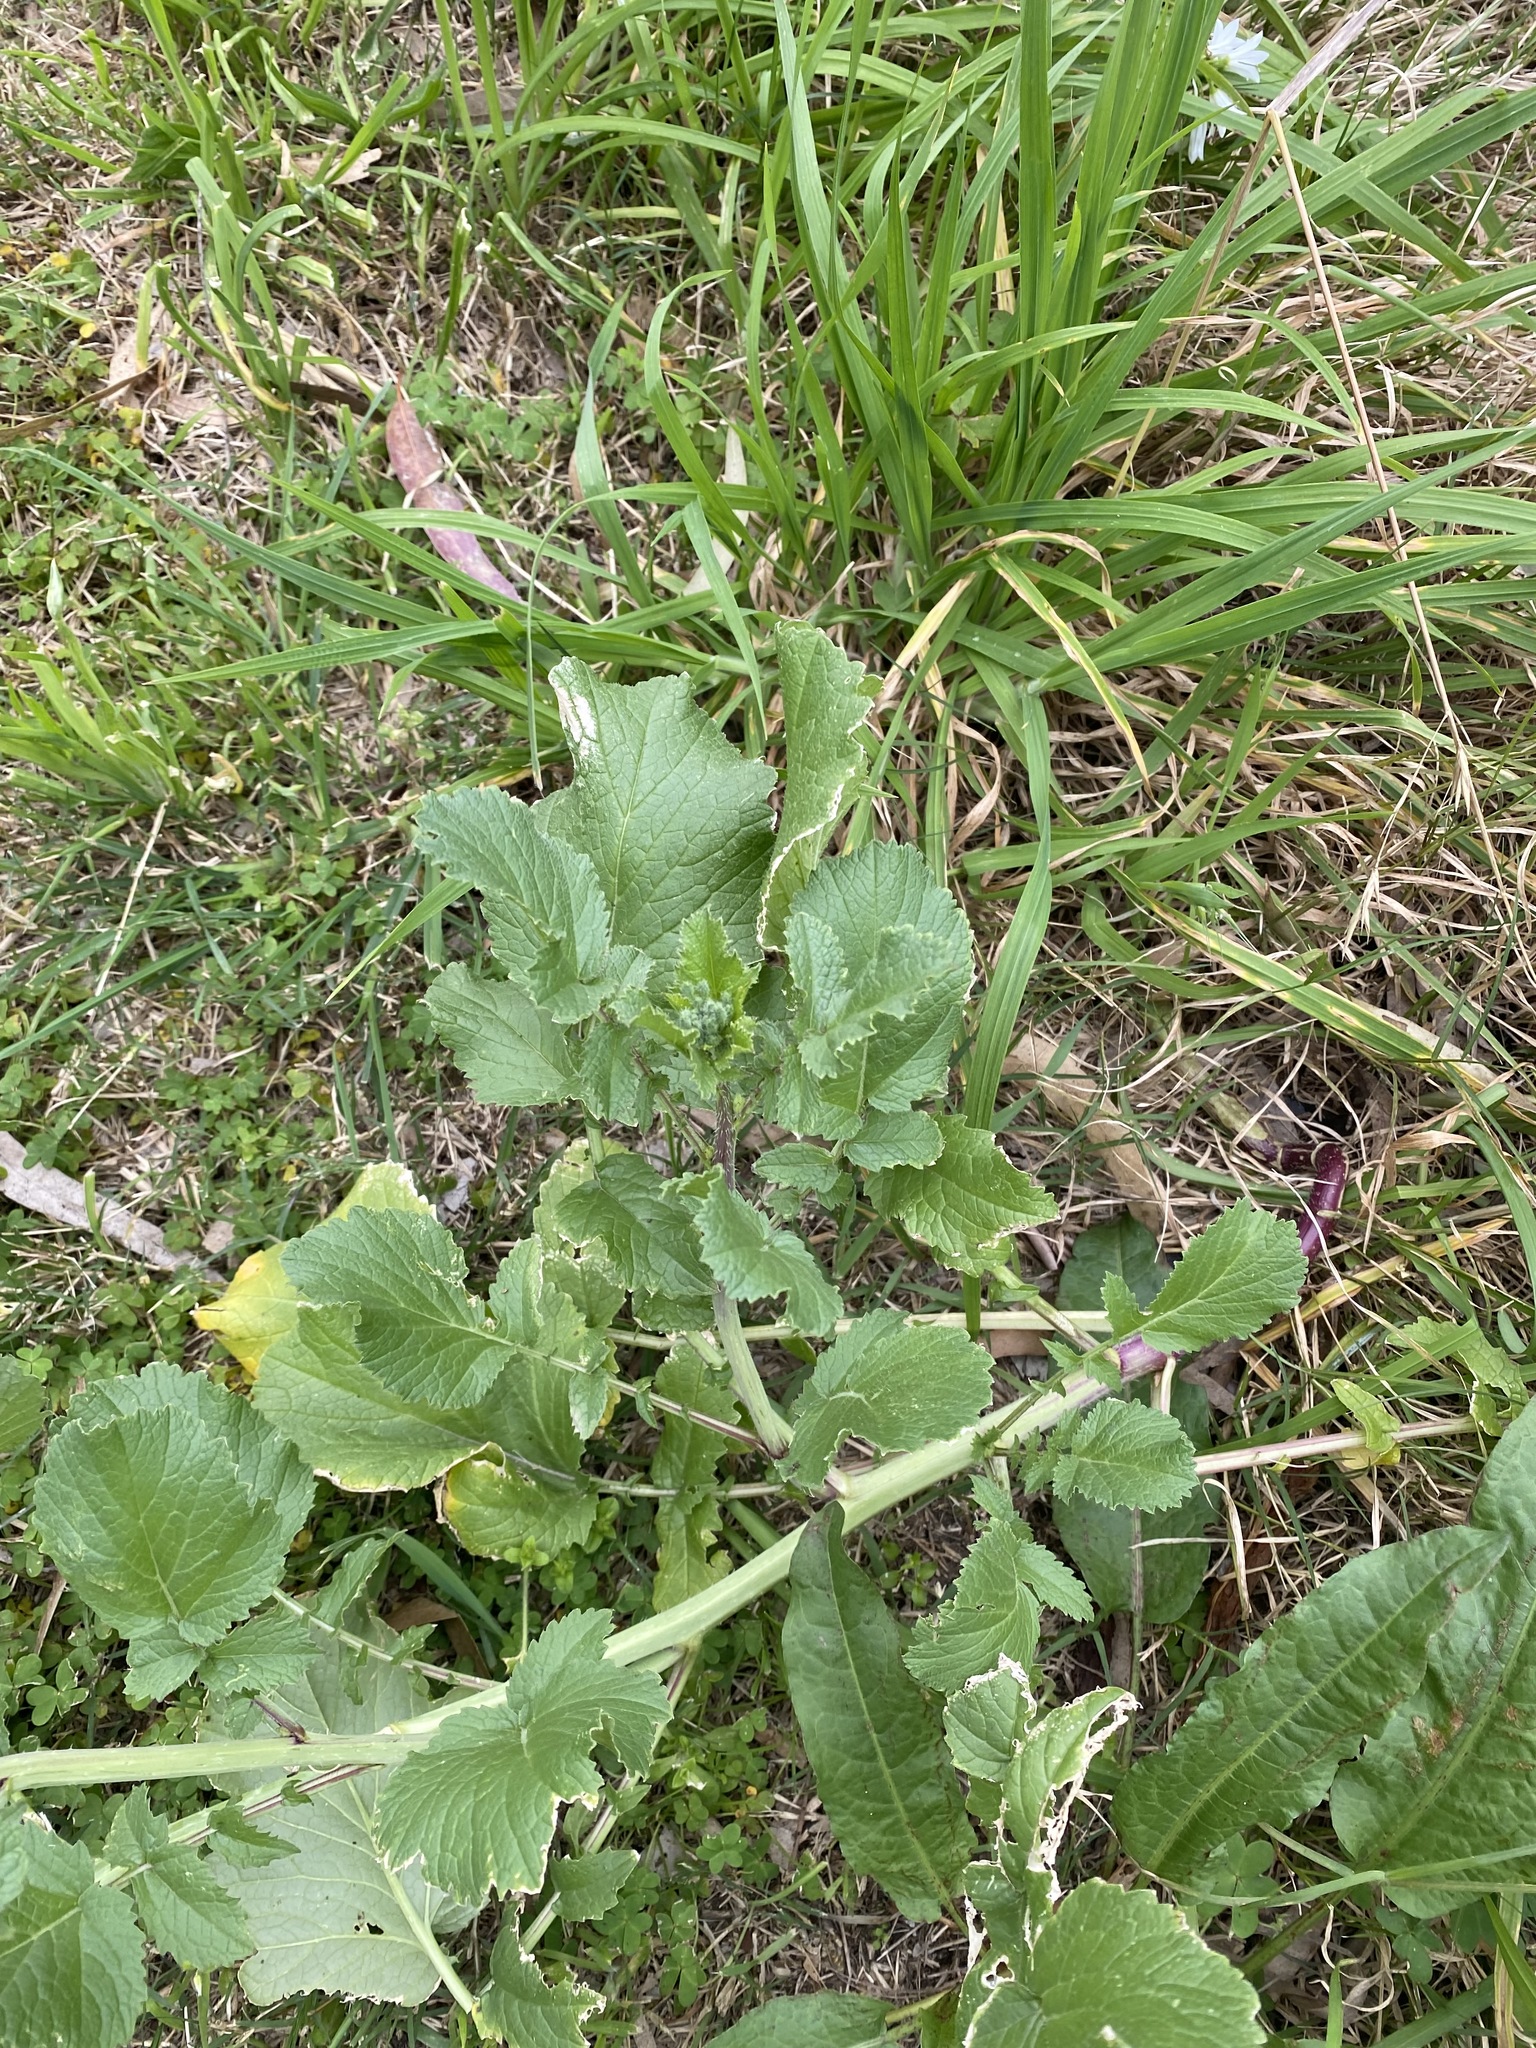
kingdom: Plantae
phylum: Tracheophyta
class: Magnoliopsida
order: Brassicales
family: Brassicaceae
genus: Raphanus
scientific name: Raphanus raphanistrum
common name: Wild radish
